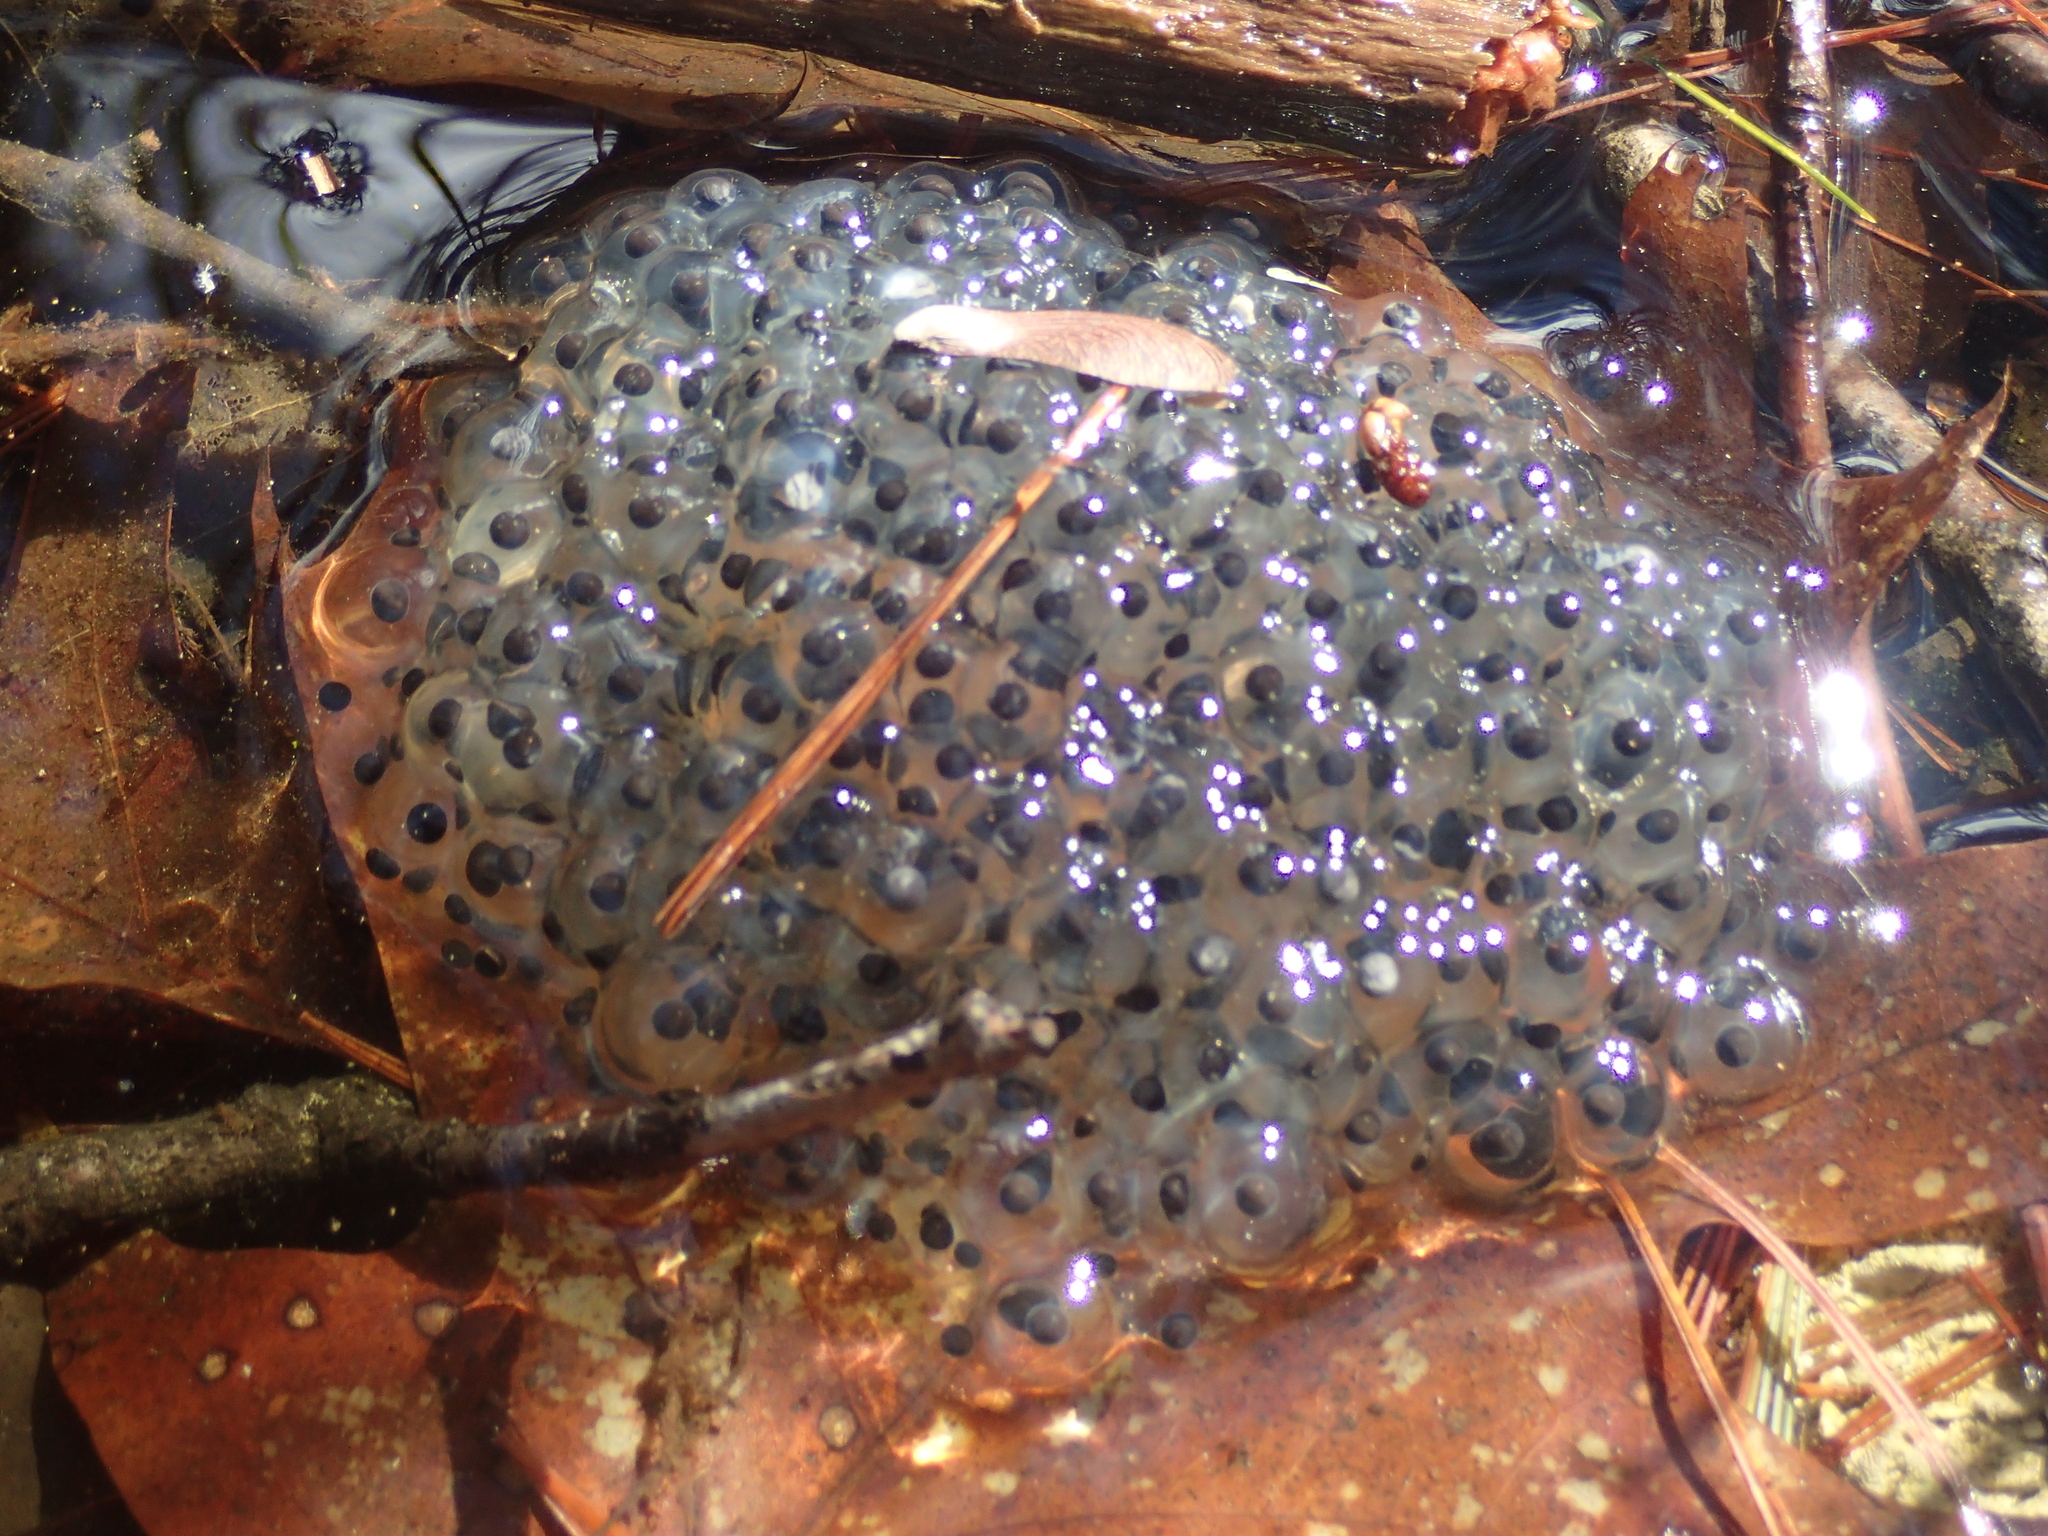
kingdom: Animalia
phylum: Chordata
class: Amphibia
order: Anura
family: Ranidae
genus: Lithobates
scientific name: Lithobates sylvaticus
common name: Wood frog
